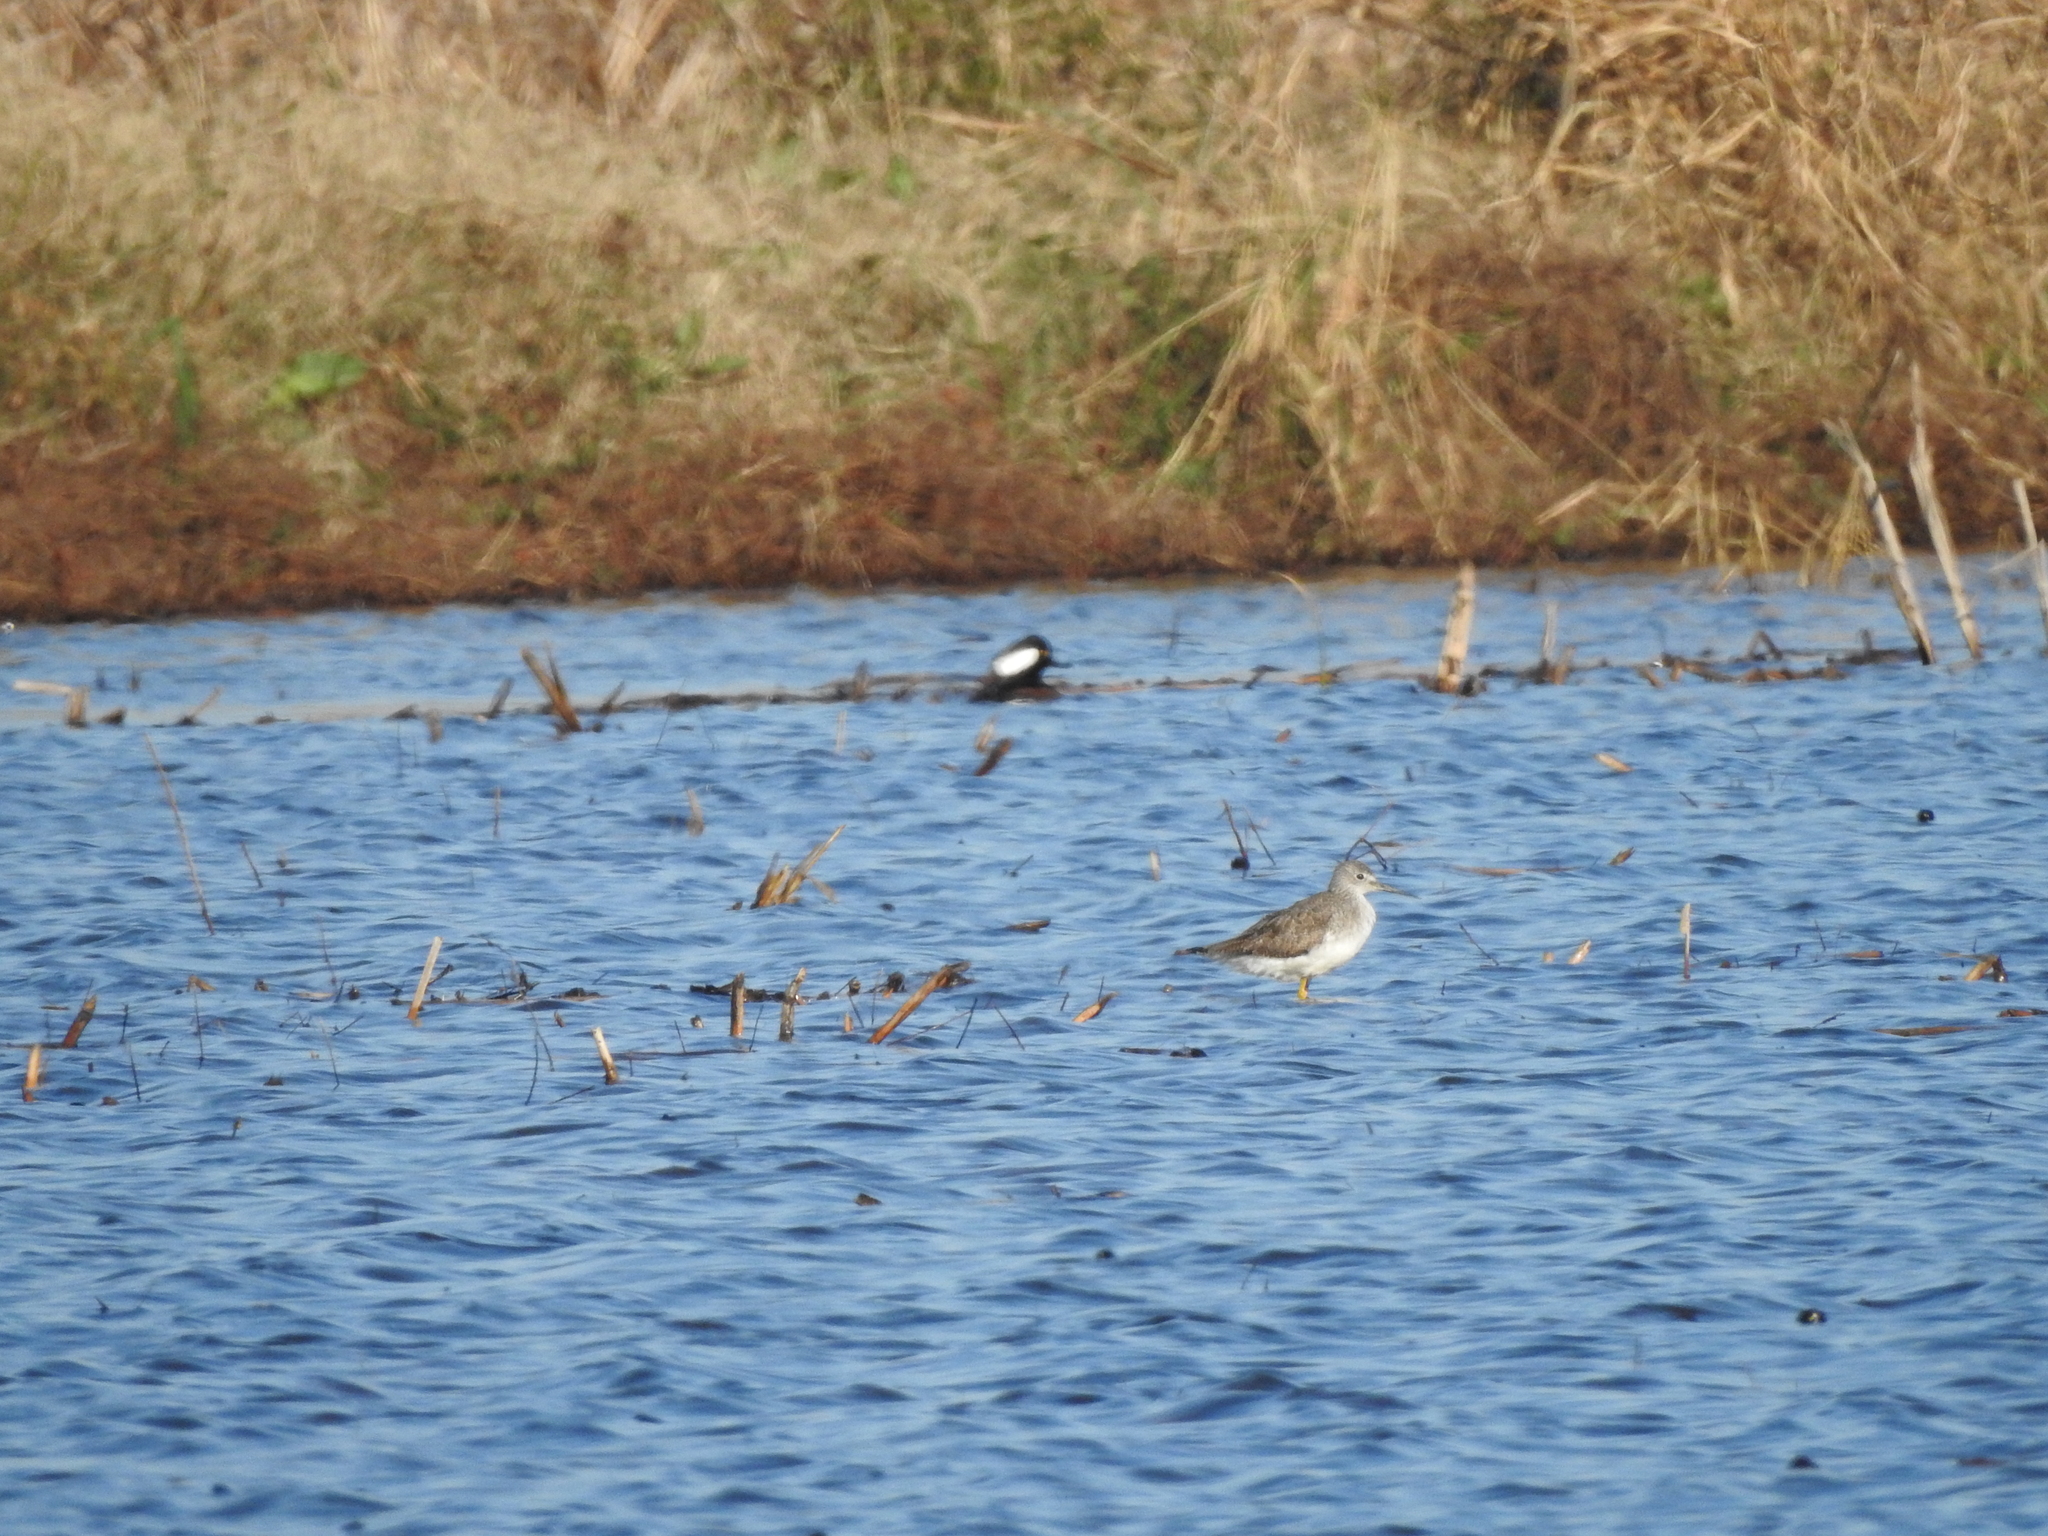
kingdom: Animalia
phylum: Chordata
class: Aves
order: Charadriiformes
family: Scolopacidae
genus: Tringa
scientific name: Tringa melanoleuca
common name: Greater yellowlegs
